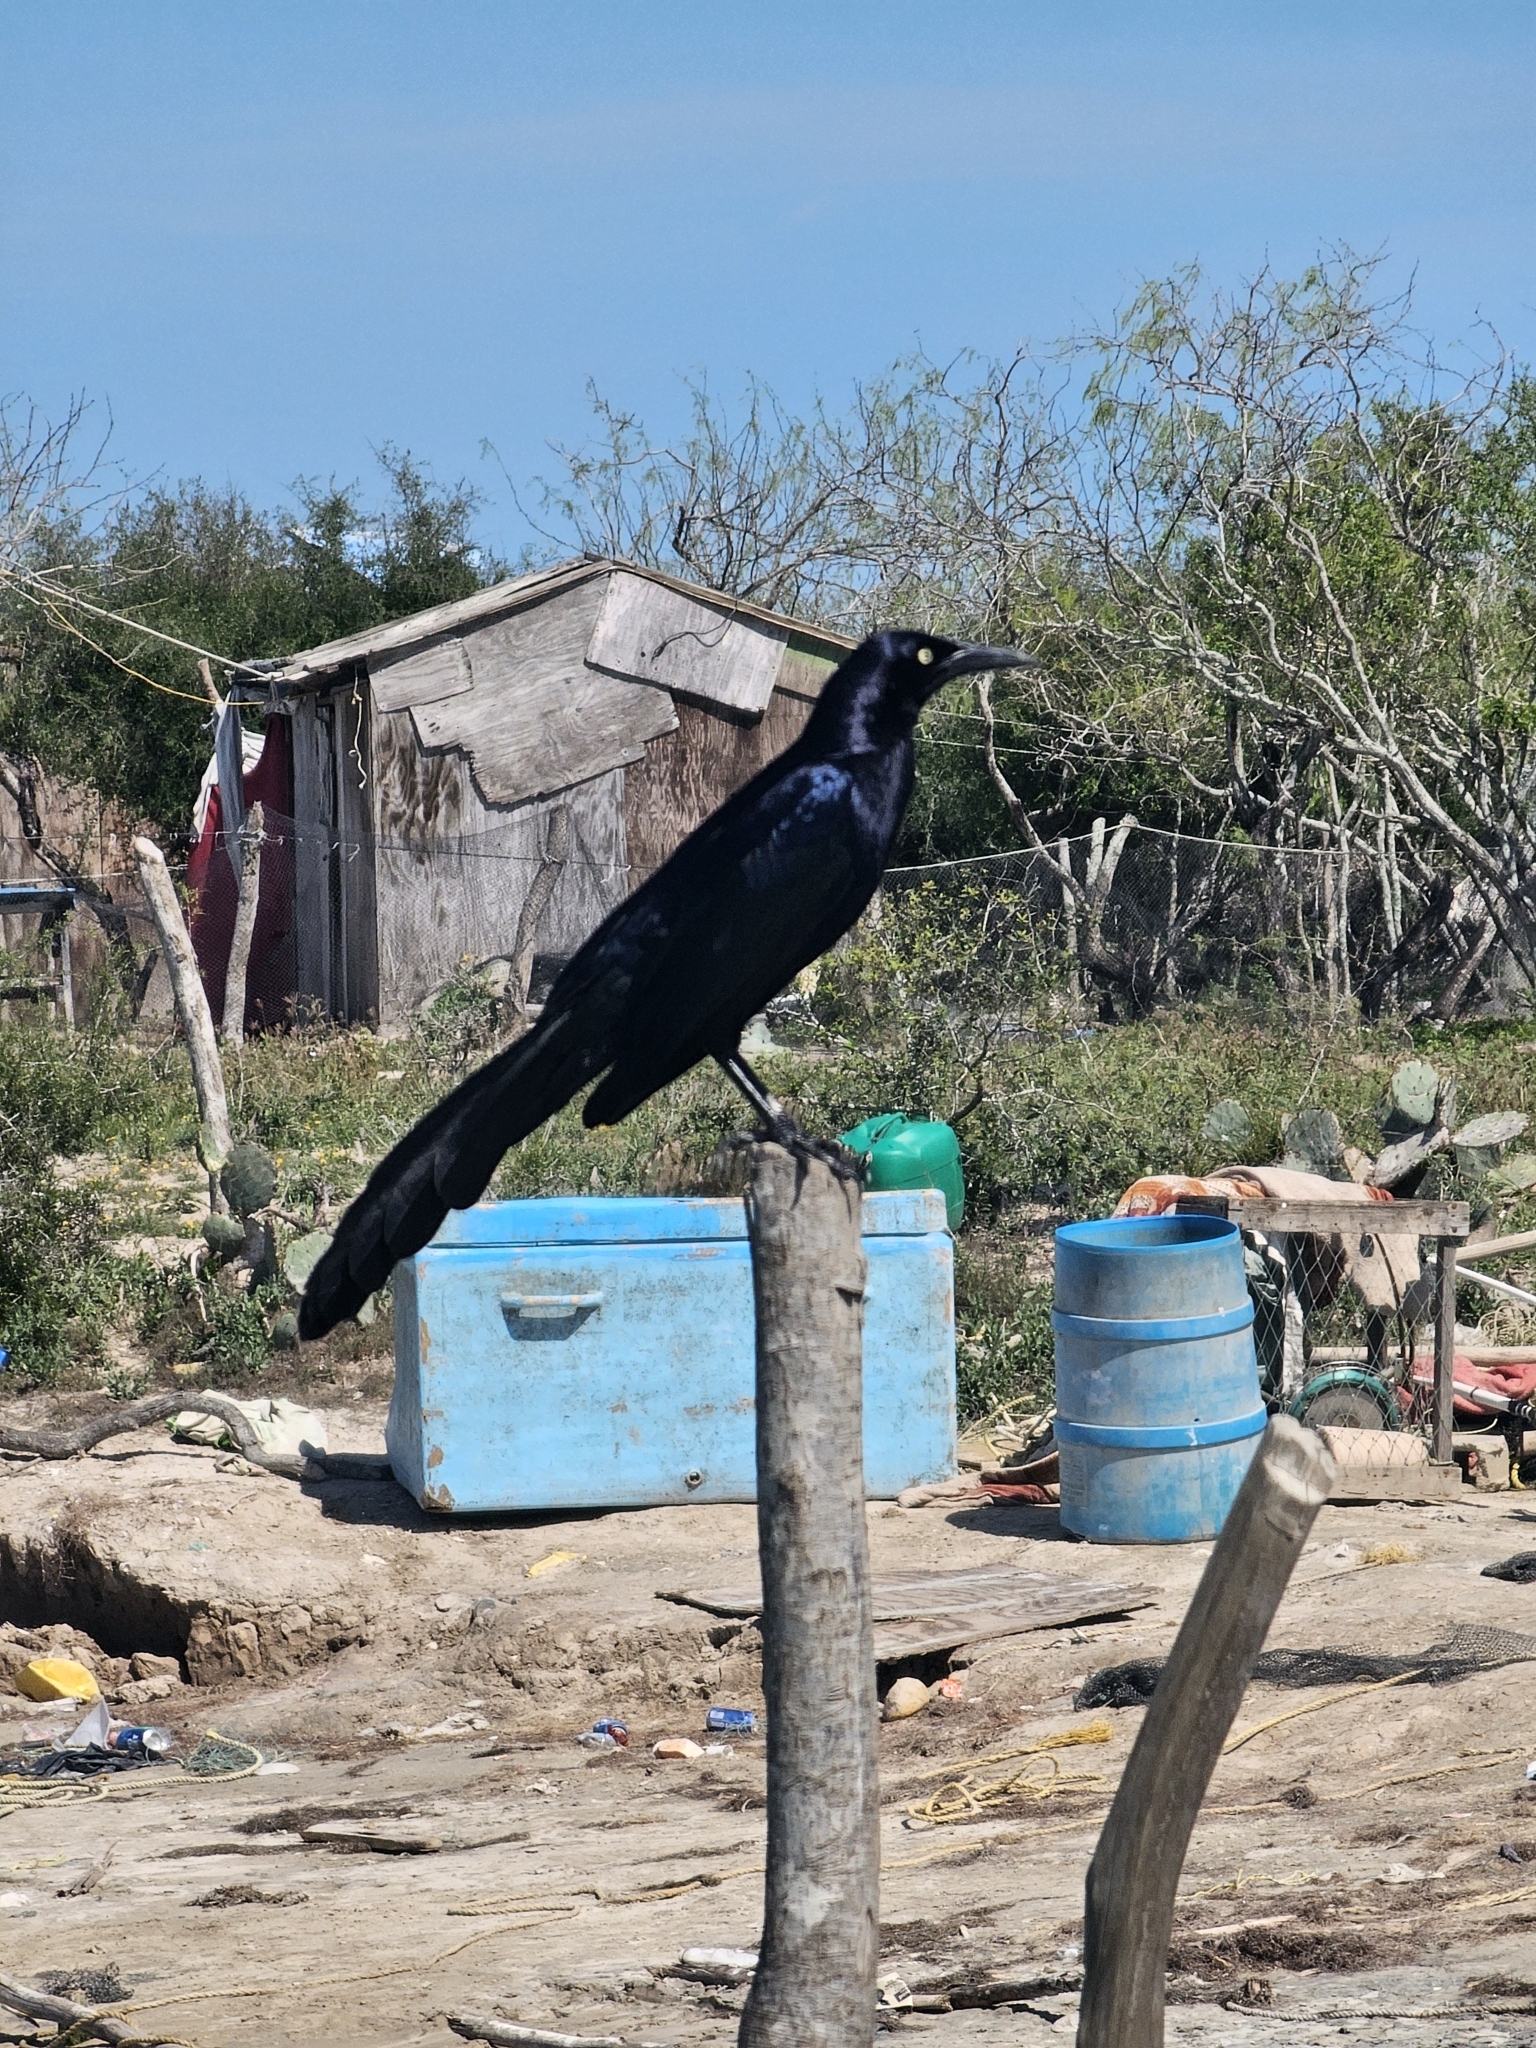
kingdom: Animalia
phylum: Chordata
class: Aves
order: Passeriformes
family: Icteridae
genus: Quiscalus
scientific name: Quiscalus mexicanus
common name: Great-tailed grackle
